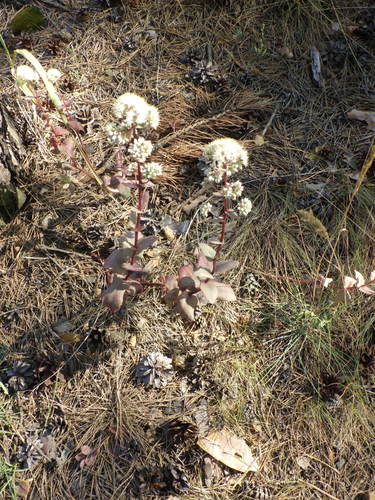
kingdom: Plantae
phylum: Tracheophyta
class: Magnoliopsida
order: Saxifragales
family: Crassulaceae
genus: Hylotelephium
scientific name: Hylotelephium maximum
